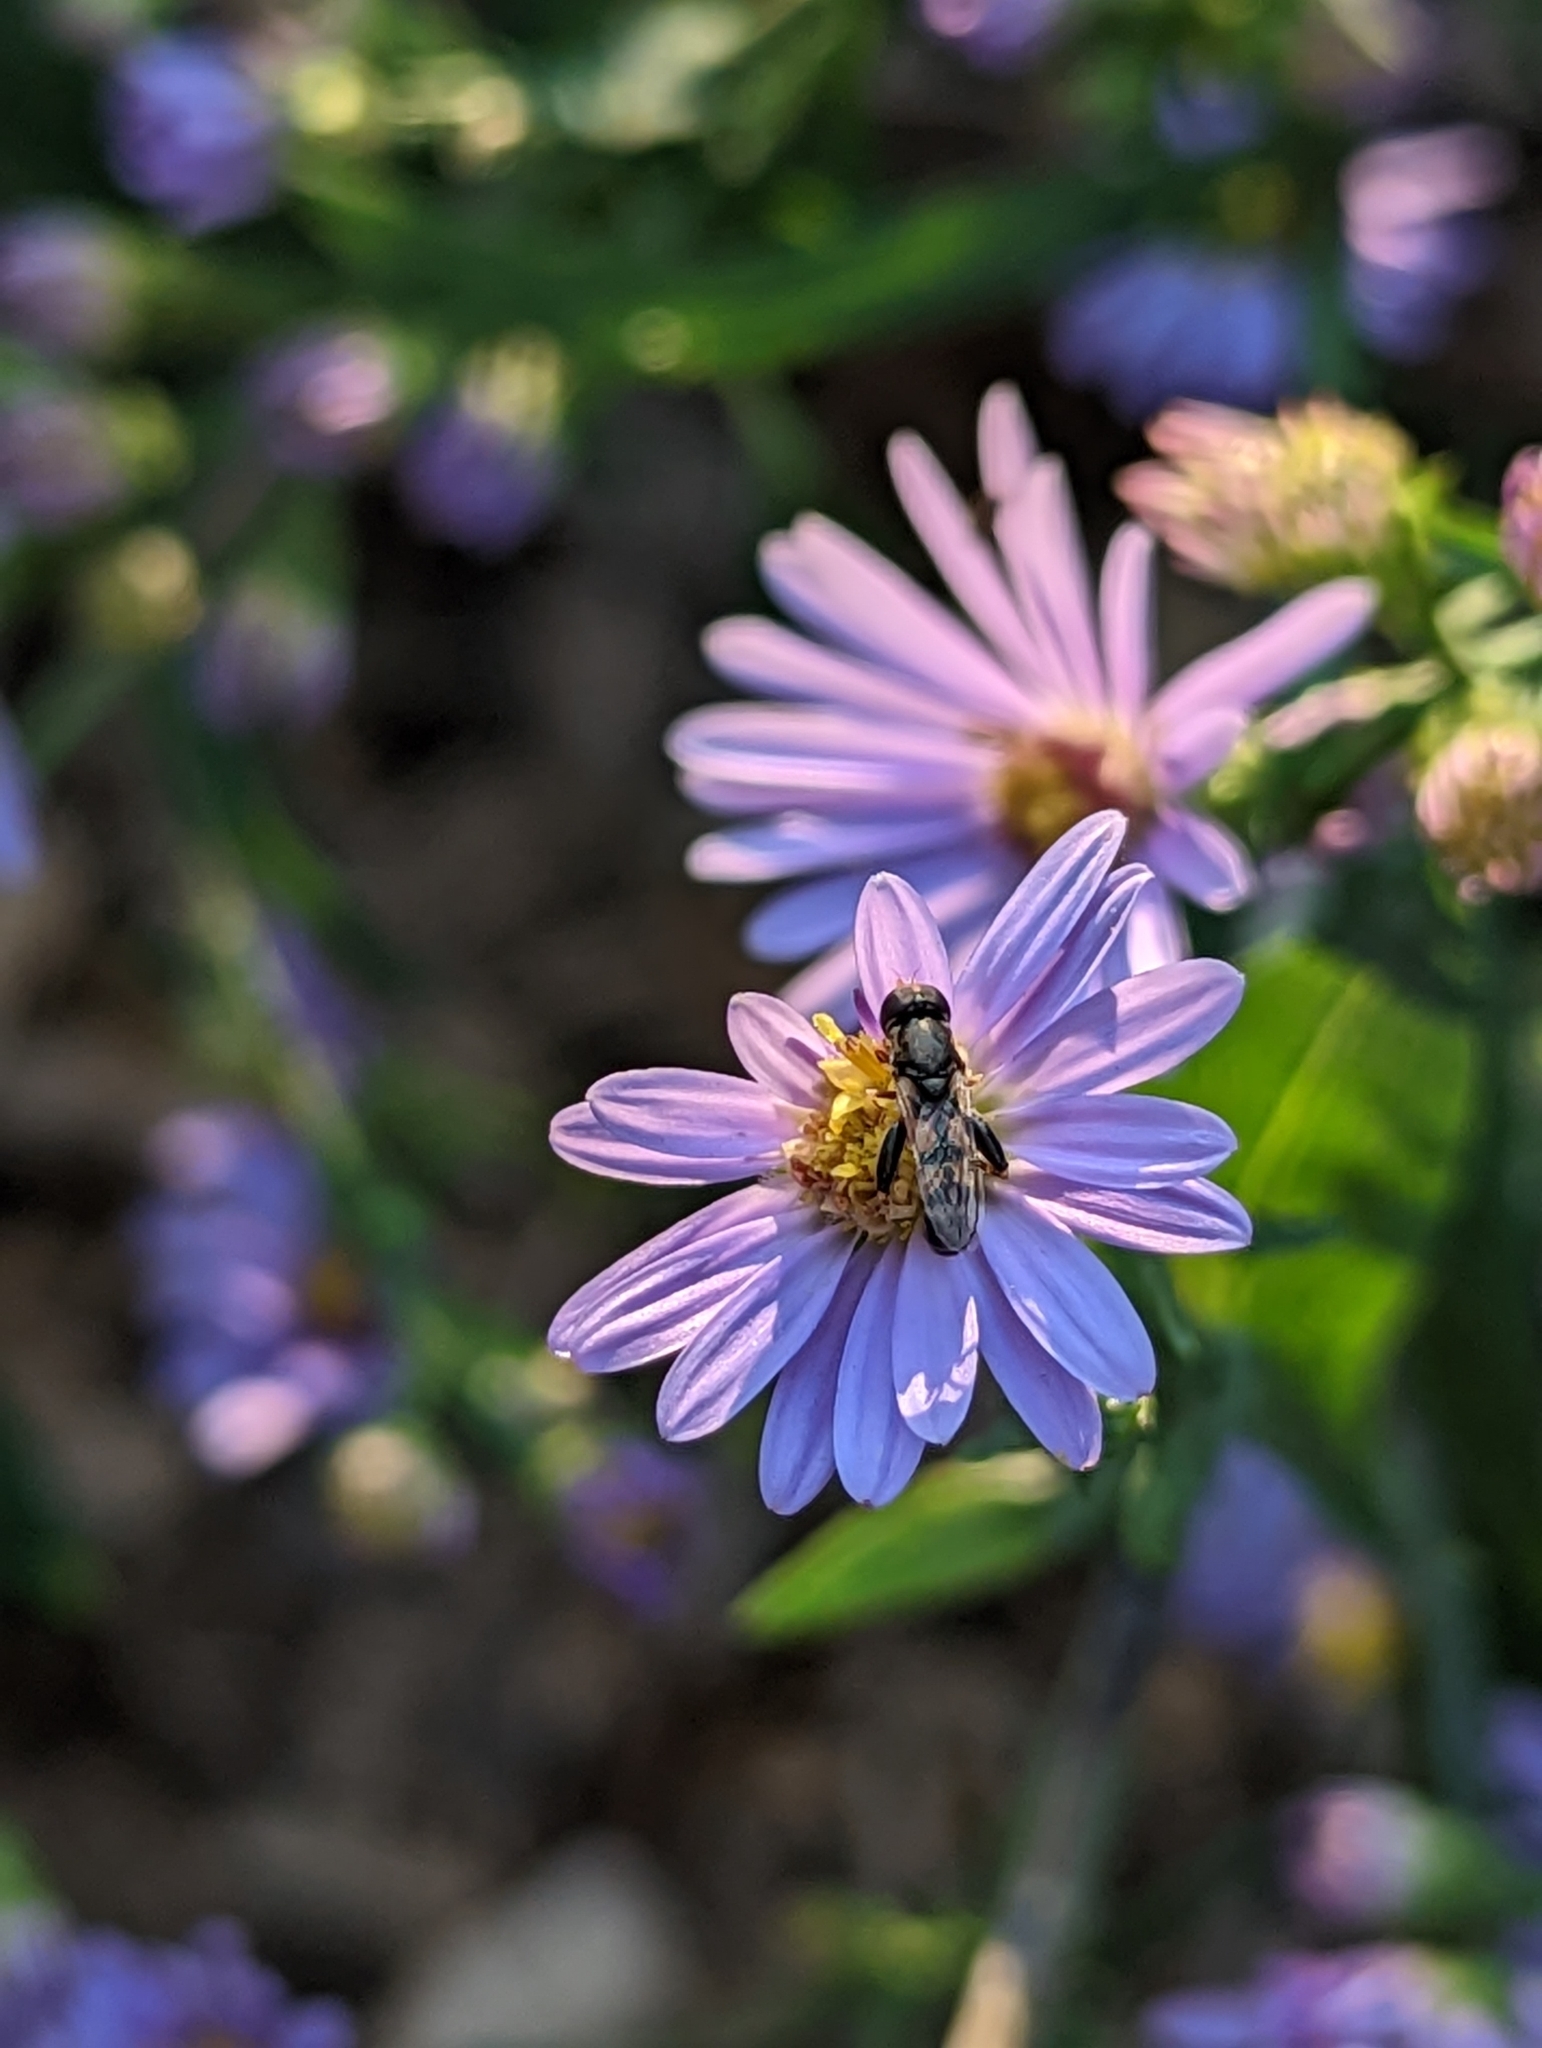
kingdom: Animalia
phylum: Arthropoda
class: Insecta
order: Diptera
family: Syrphidae
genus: Syritta
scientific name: Syritta pipiens
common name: Hover fly
